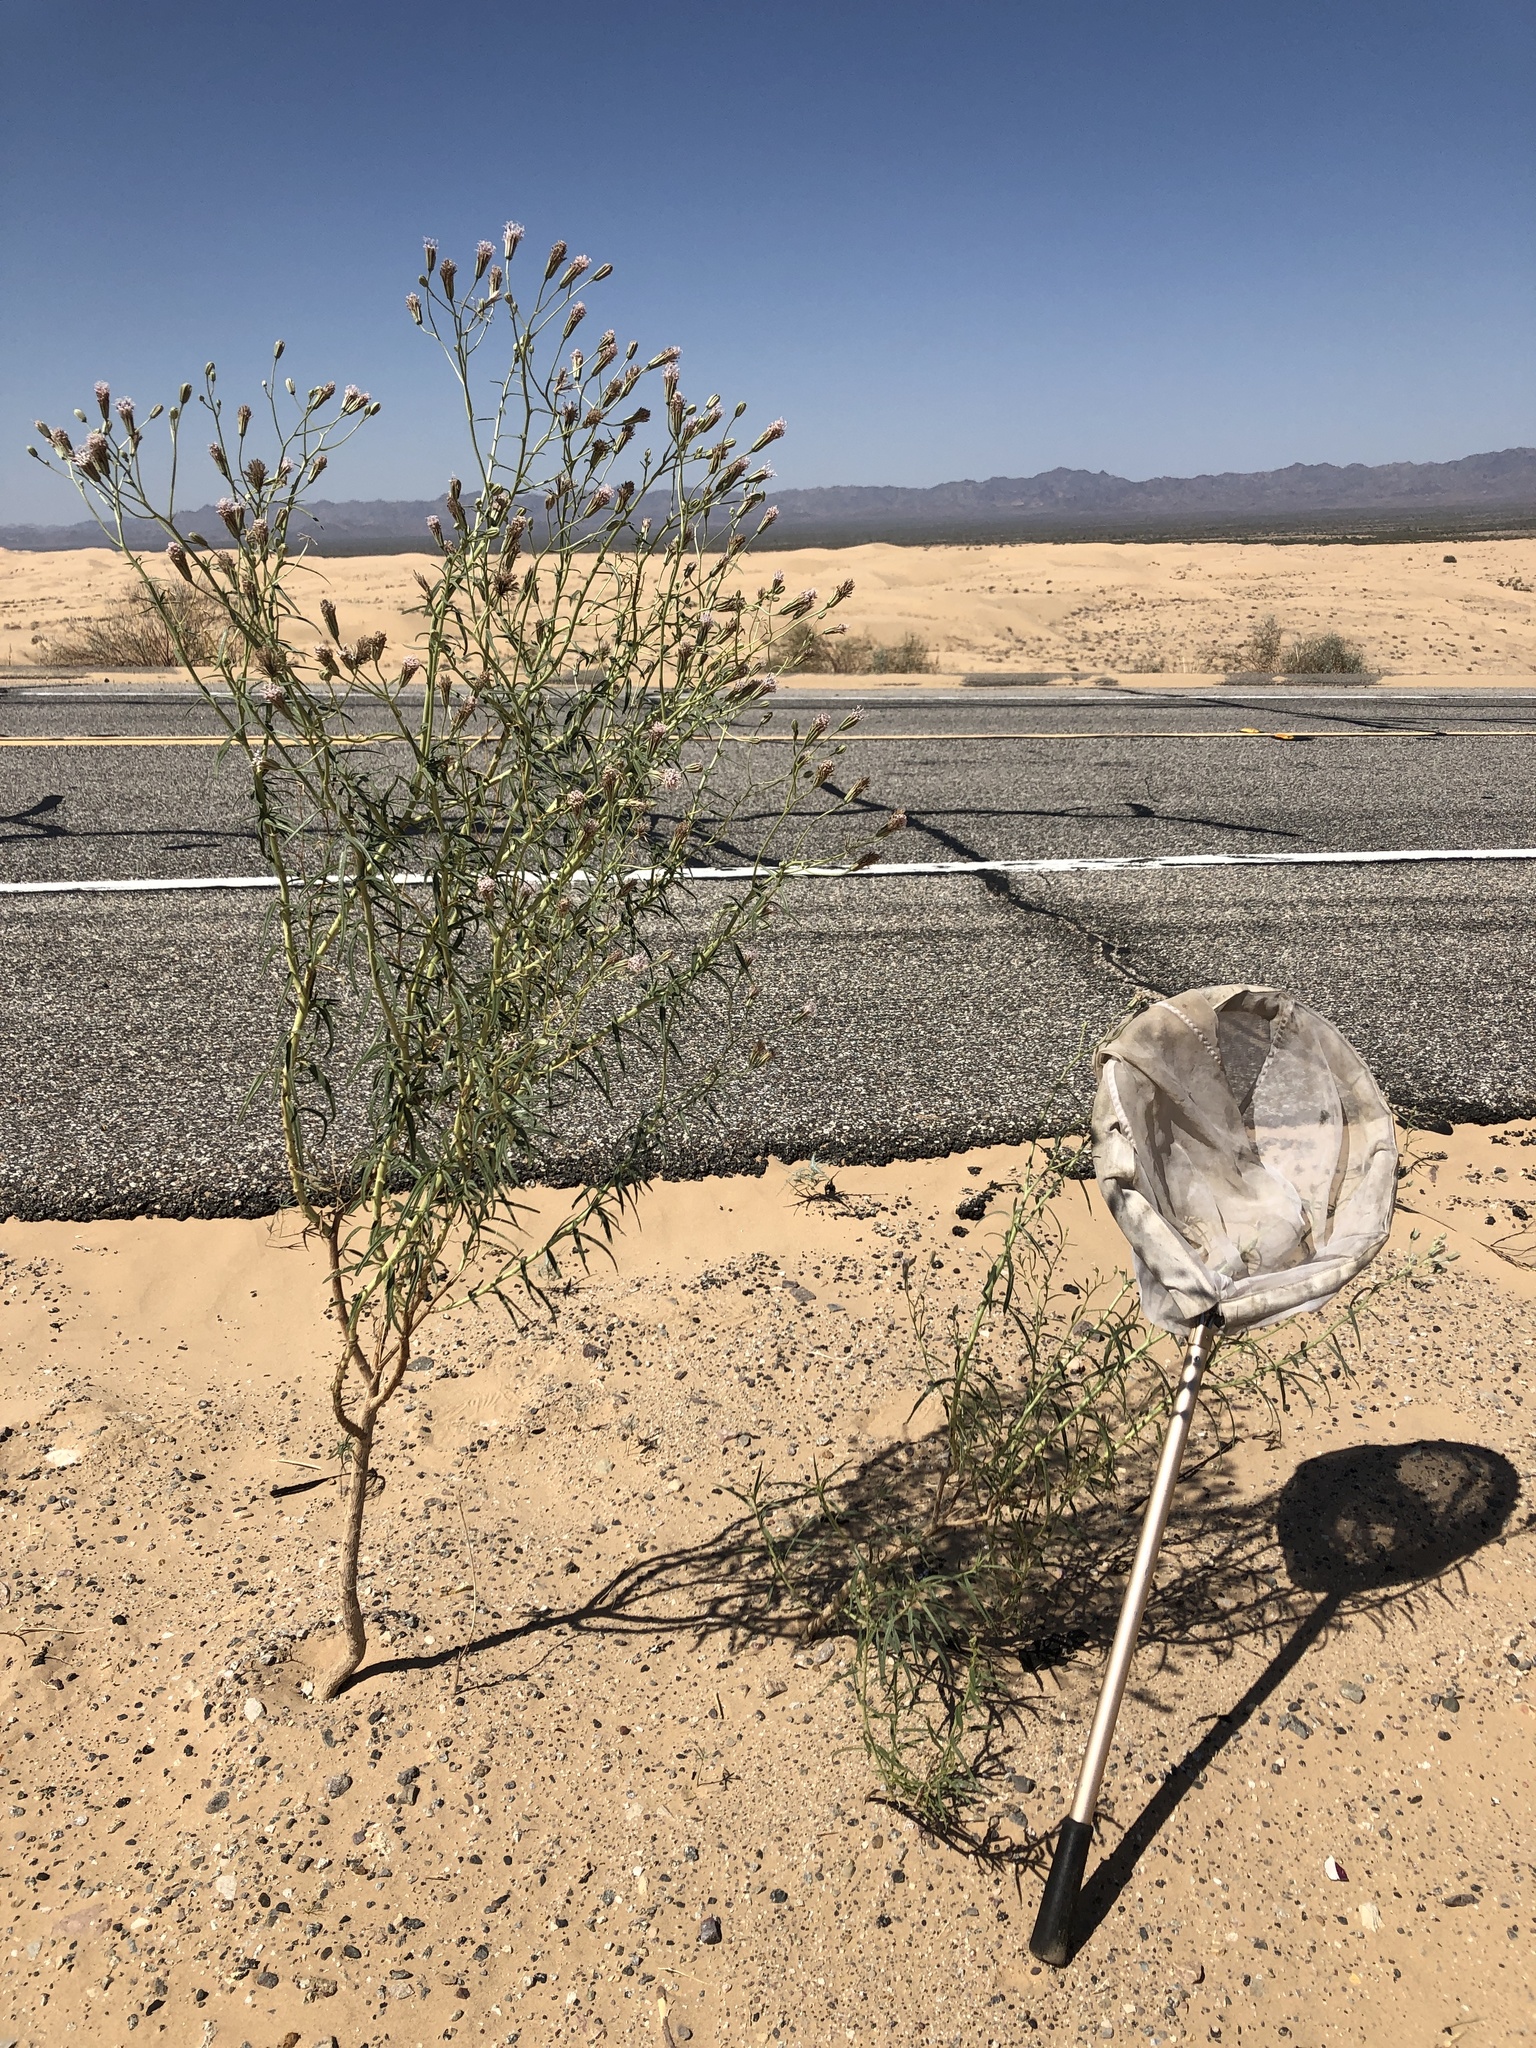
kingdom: Plantae
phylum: Tracheophyta
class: Magnoliopsida
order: Asterales
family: Asteraceae
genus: Palafoxia
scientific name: Palafoxia arida
